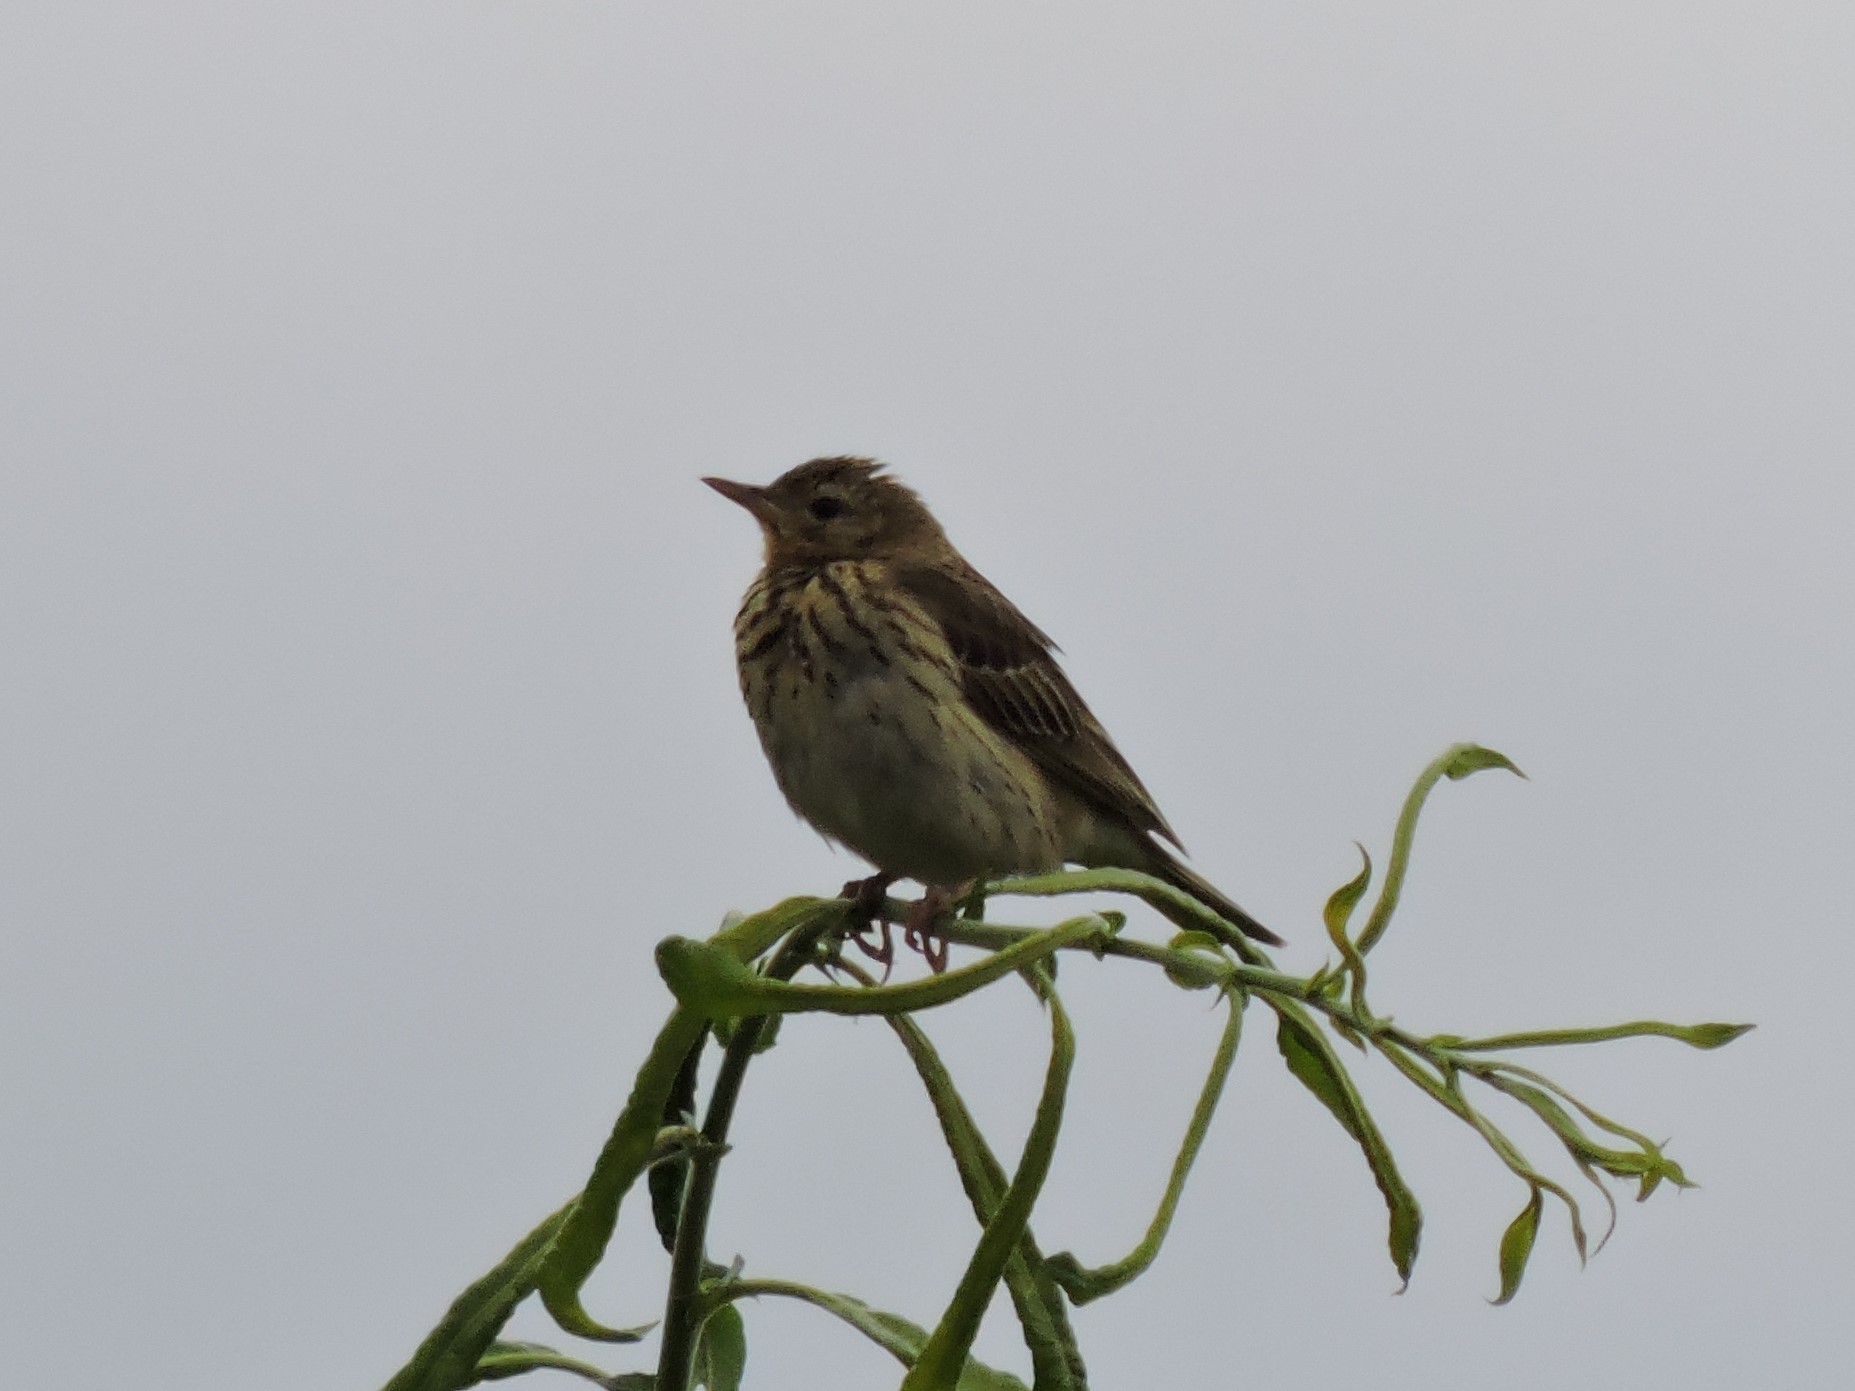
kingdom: Animalia
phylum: Chordata
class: Aves
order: Passeriformes
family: Motacillidae
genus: Anthus
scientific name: Anthus trivialis
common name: Tree pipit
